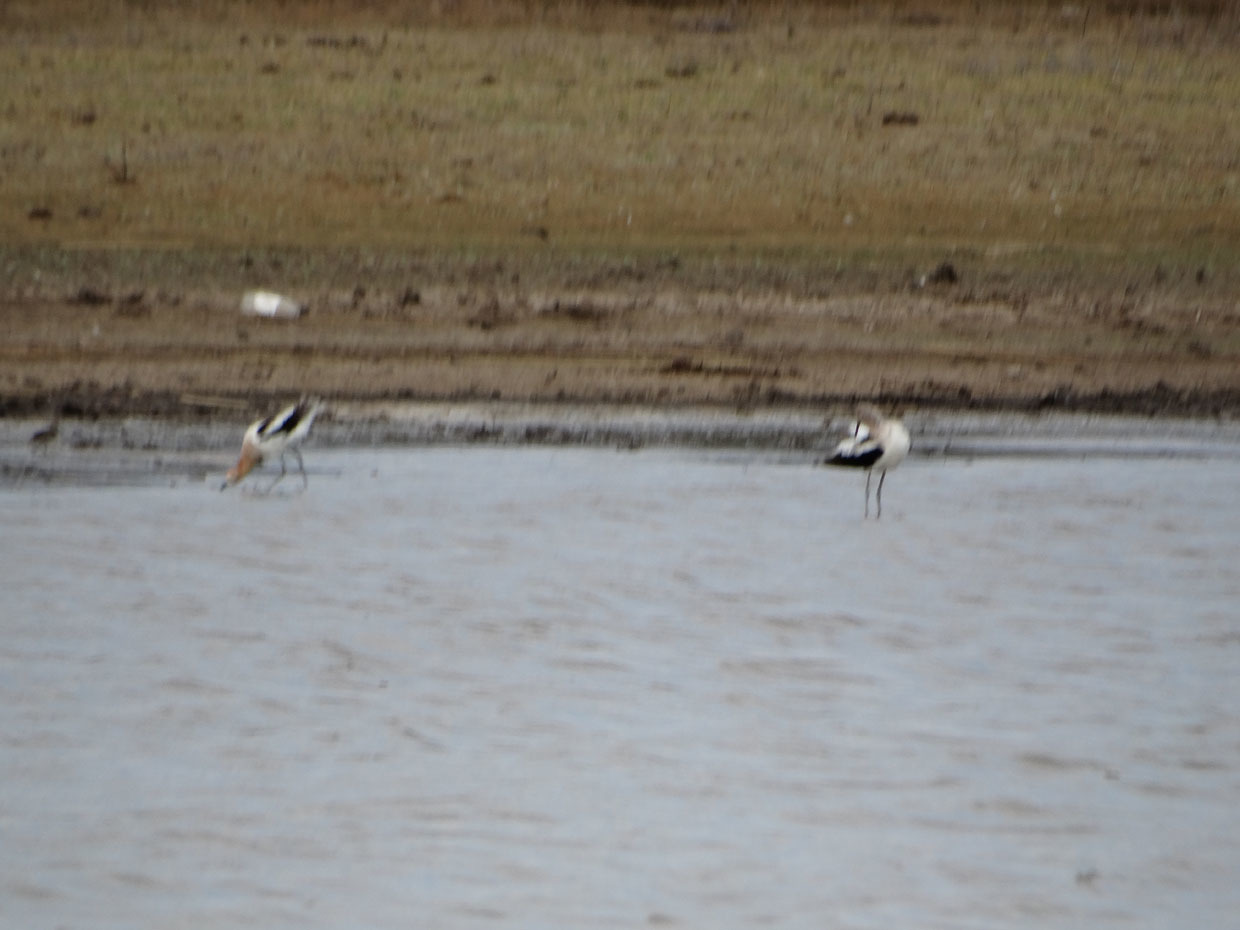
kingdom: Animalia
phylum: Chordata
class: Aves
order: Charadriiformes
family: Recurvirostridae
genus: Recurvirostra
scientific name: Recurvirostra americana
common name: American avocet
